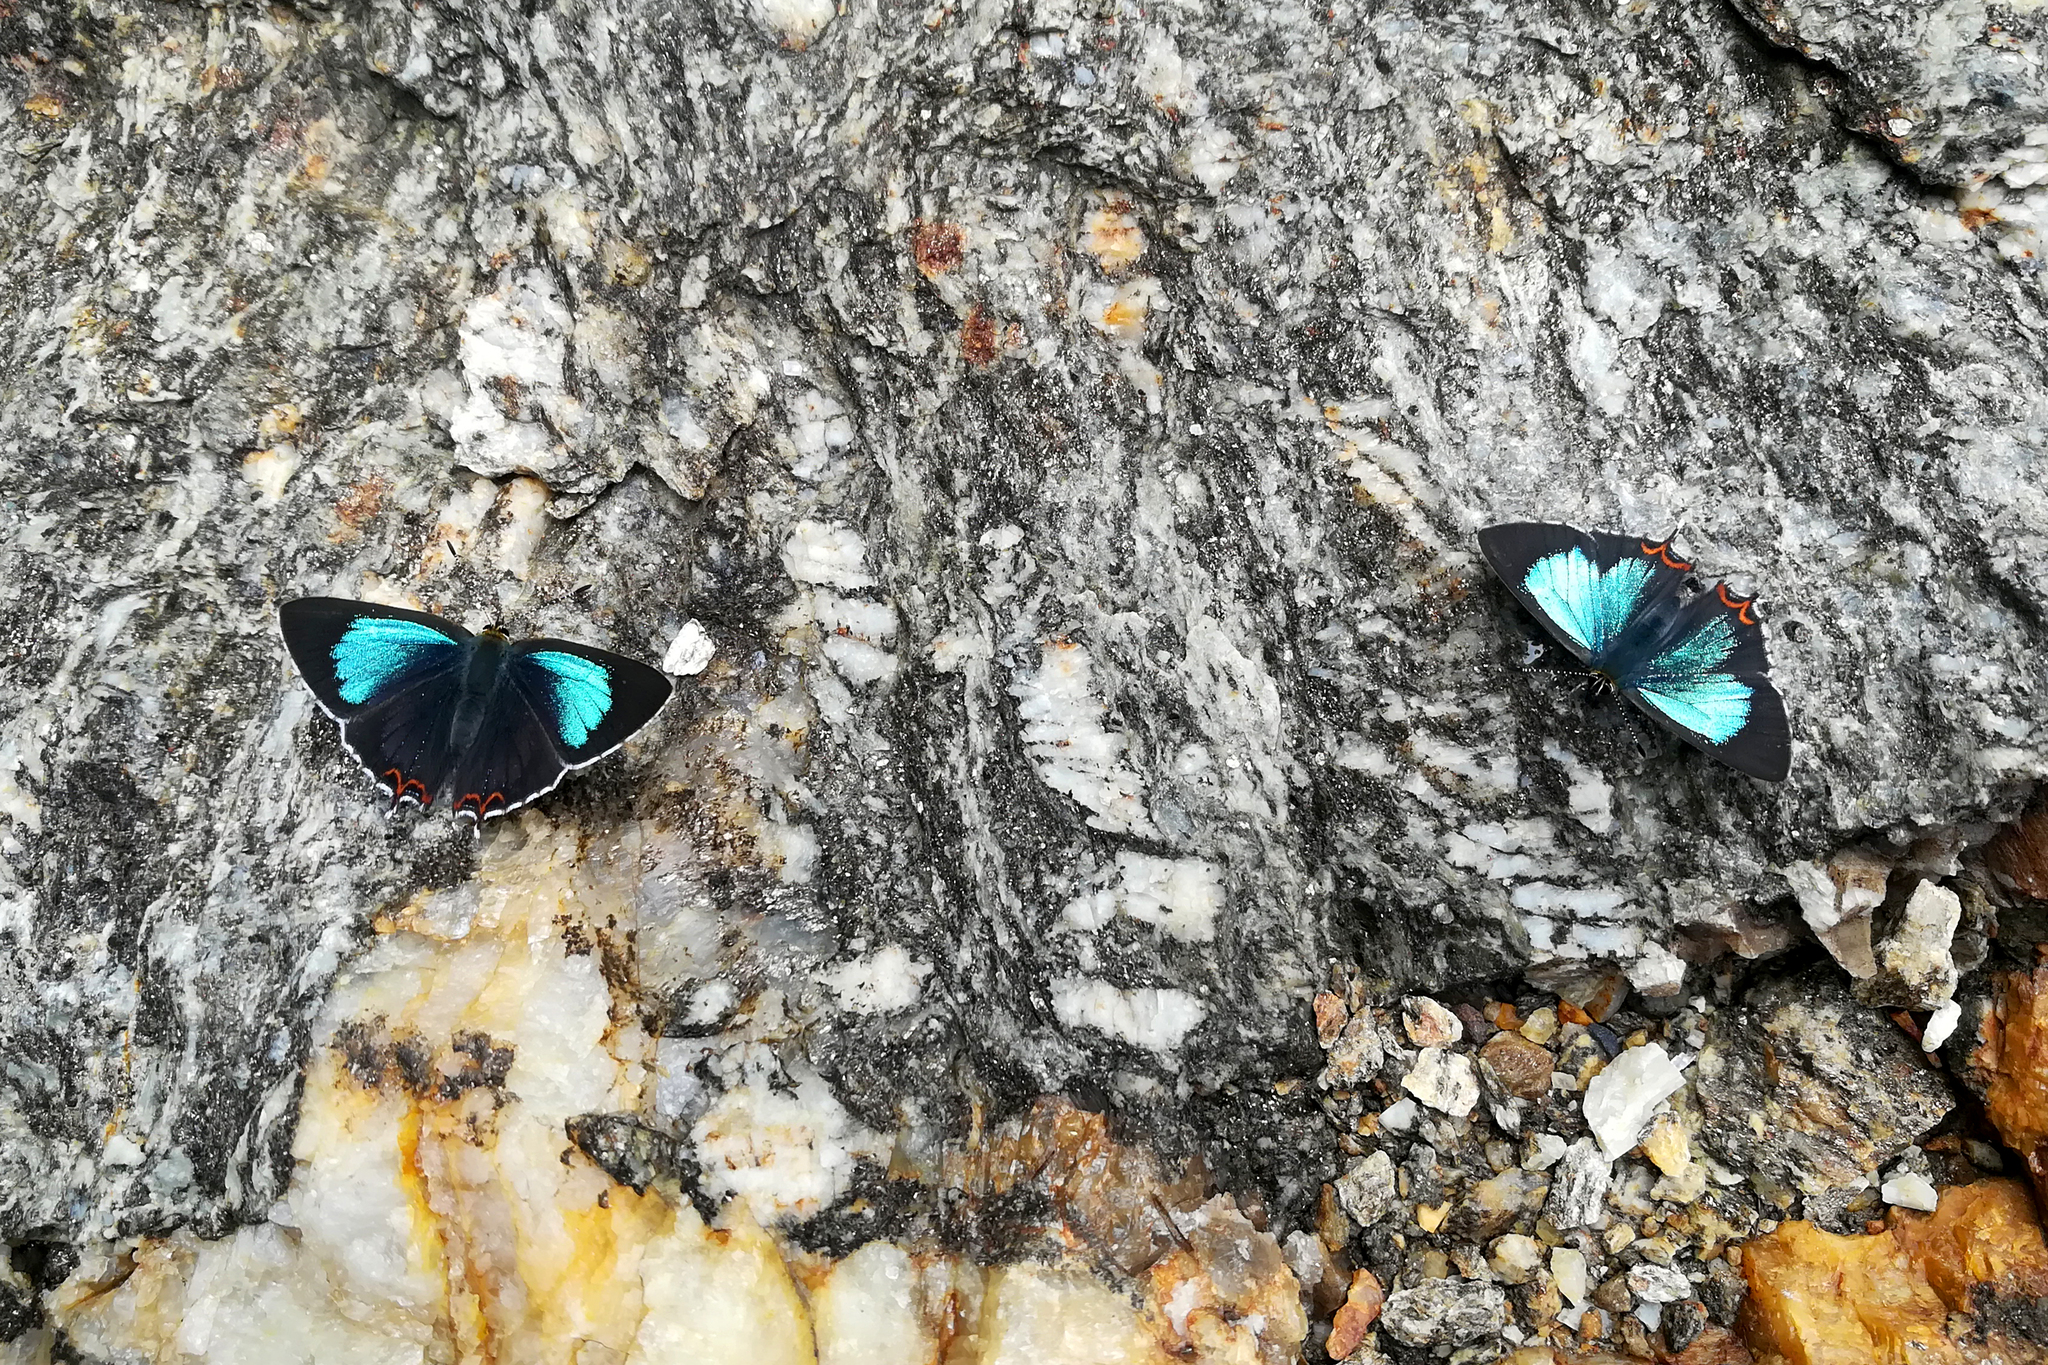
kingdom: Animalia
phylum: Arthropoda
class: Insecta
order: Lepidoptera
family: Lycaenidae
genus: Heliophorus
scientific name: Heliophorus
